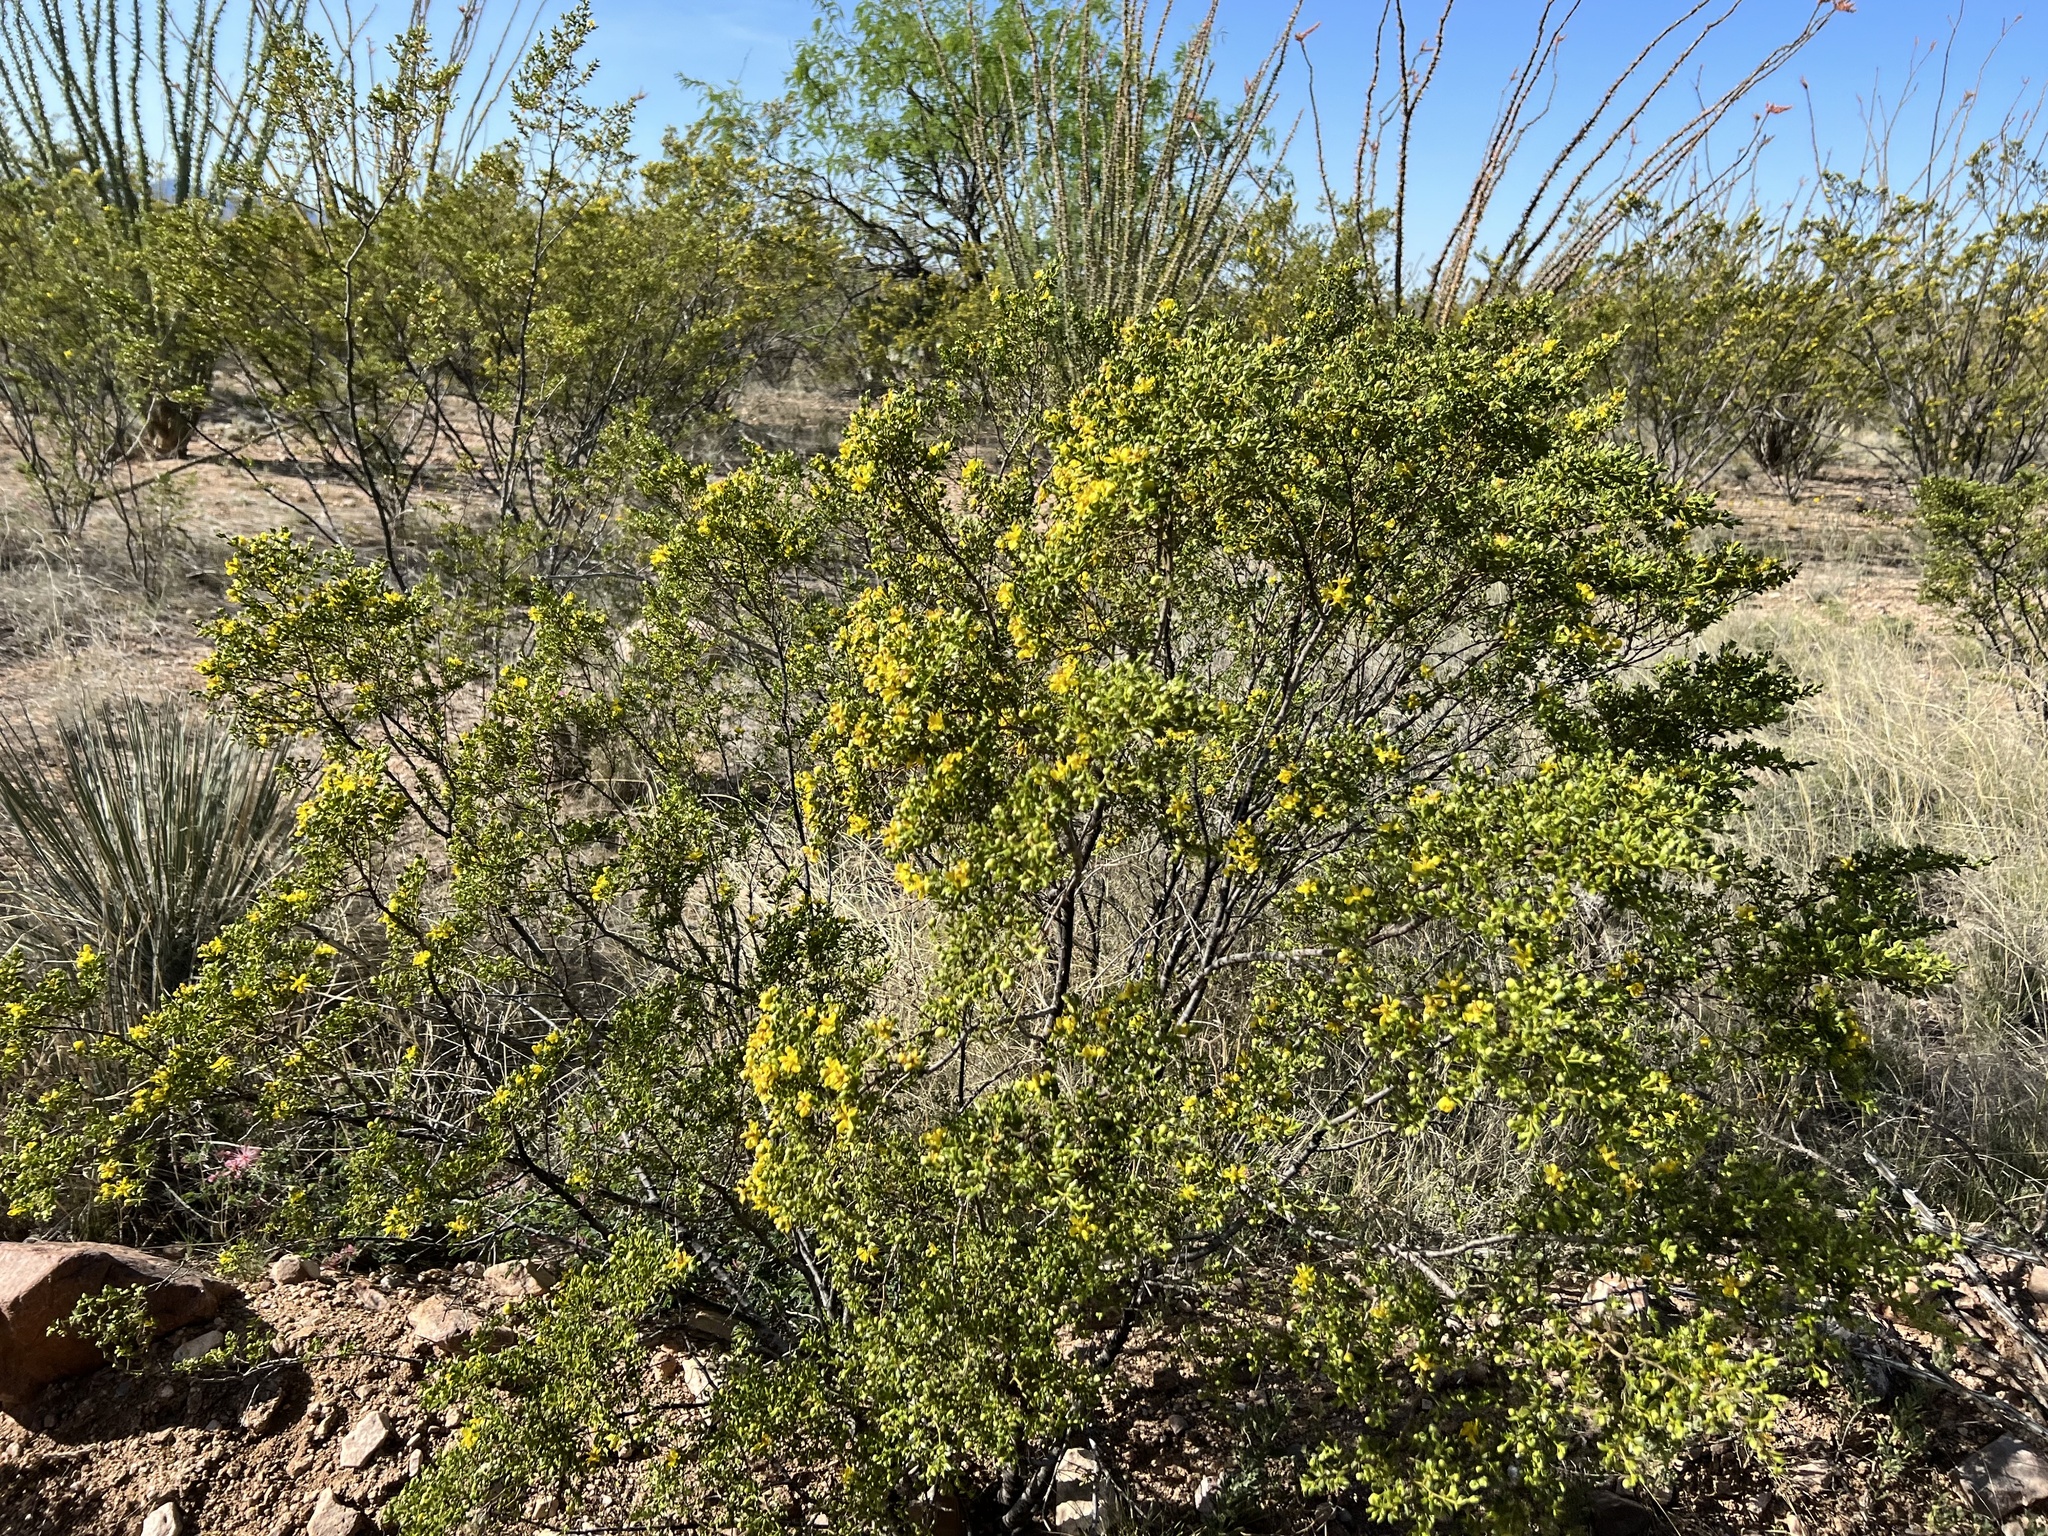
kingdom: Plantae
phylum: Tracheophyta
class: Magnoliopsida
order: Zygophyllales
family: Zygophyllaceae
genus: Larrea
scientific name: Larrea tridentata
